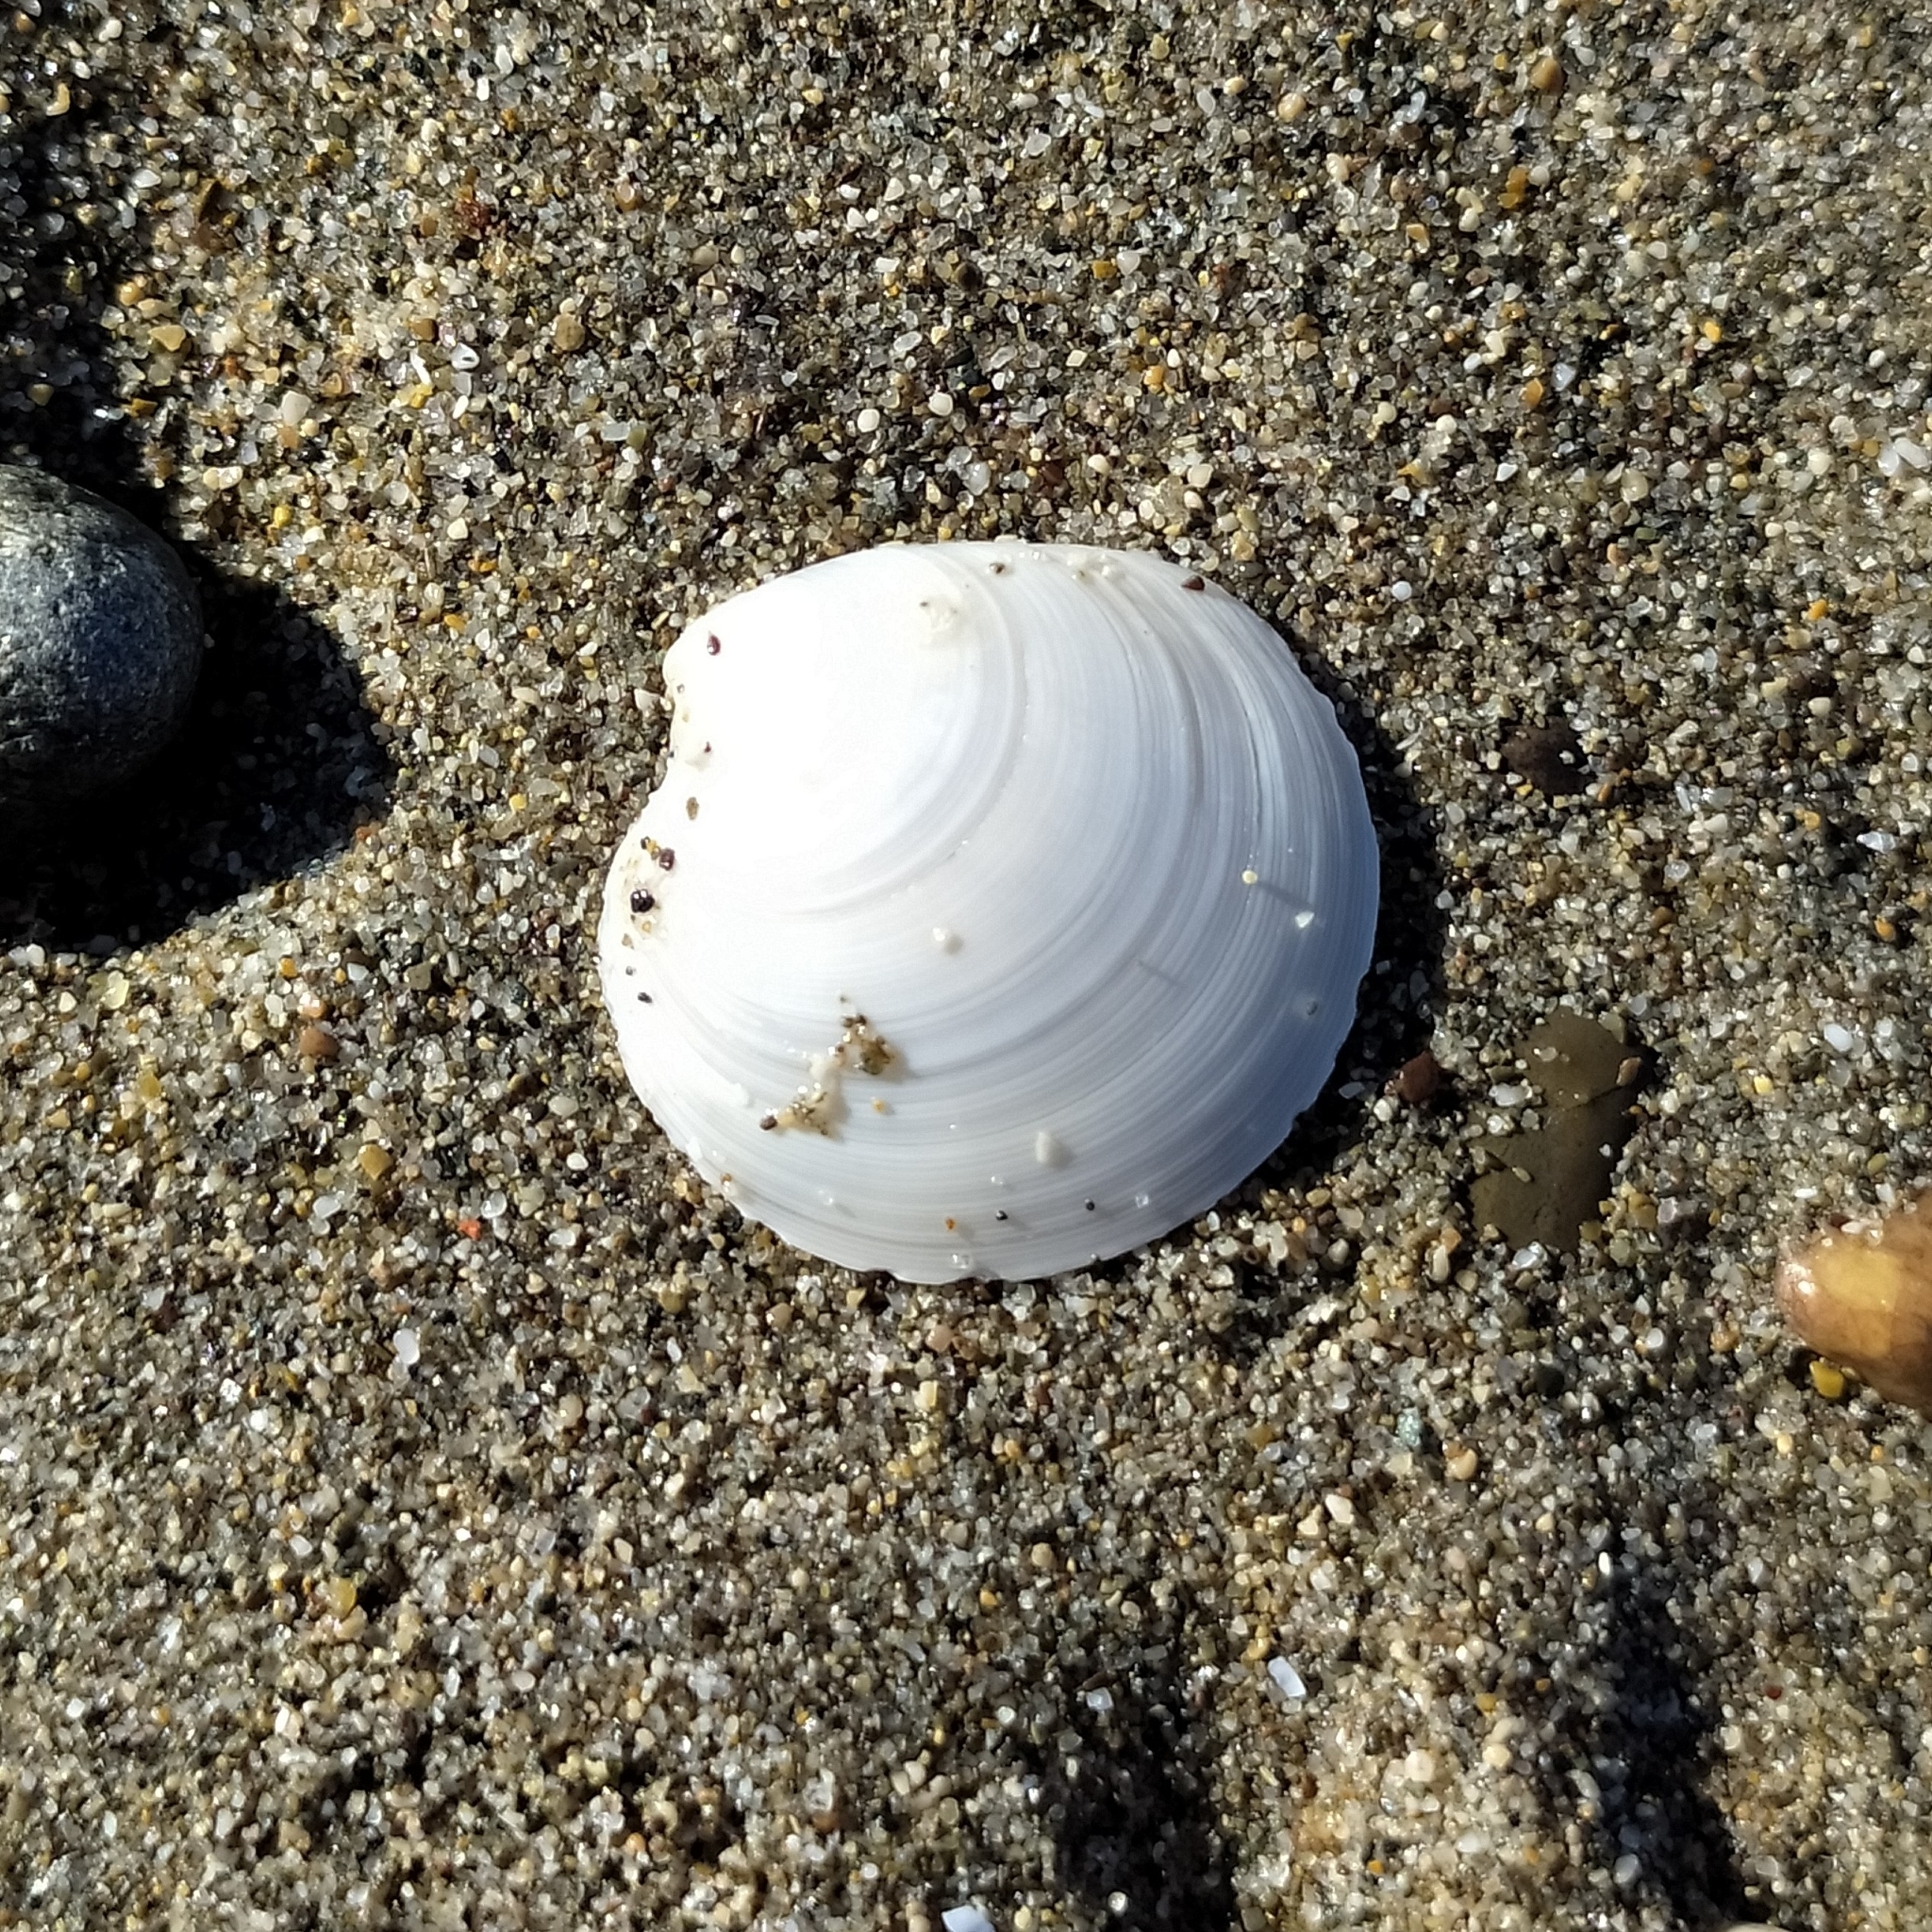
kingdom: Animalia
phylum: Mollusca
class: Bivalvia
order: Venerida
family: Veneridae
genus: Dosinia
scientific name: Dosinia lupinus
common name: Smooth artemis
